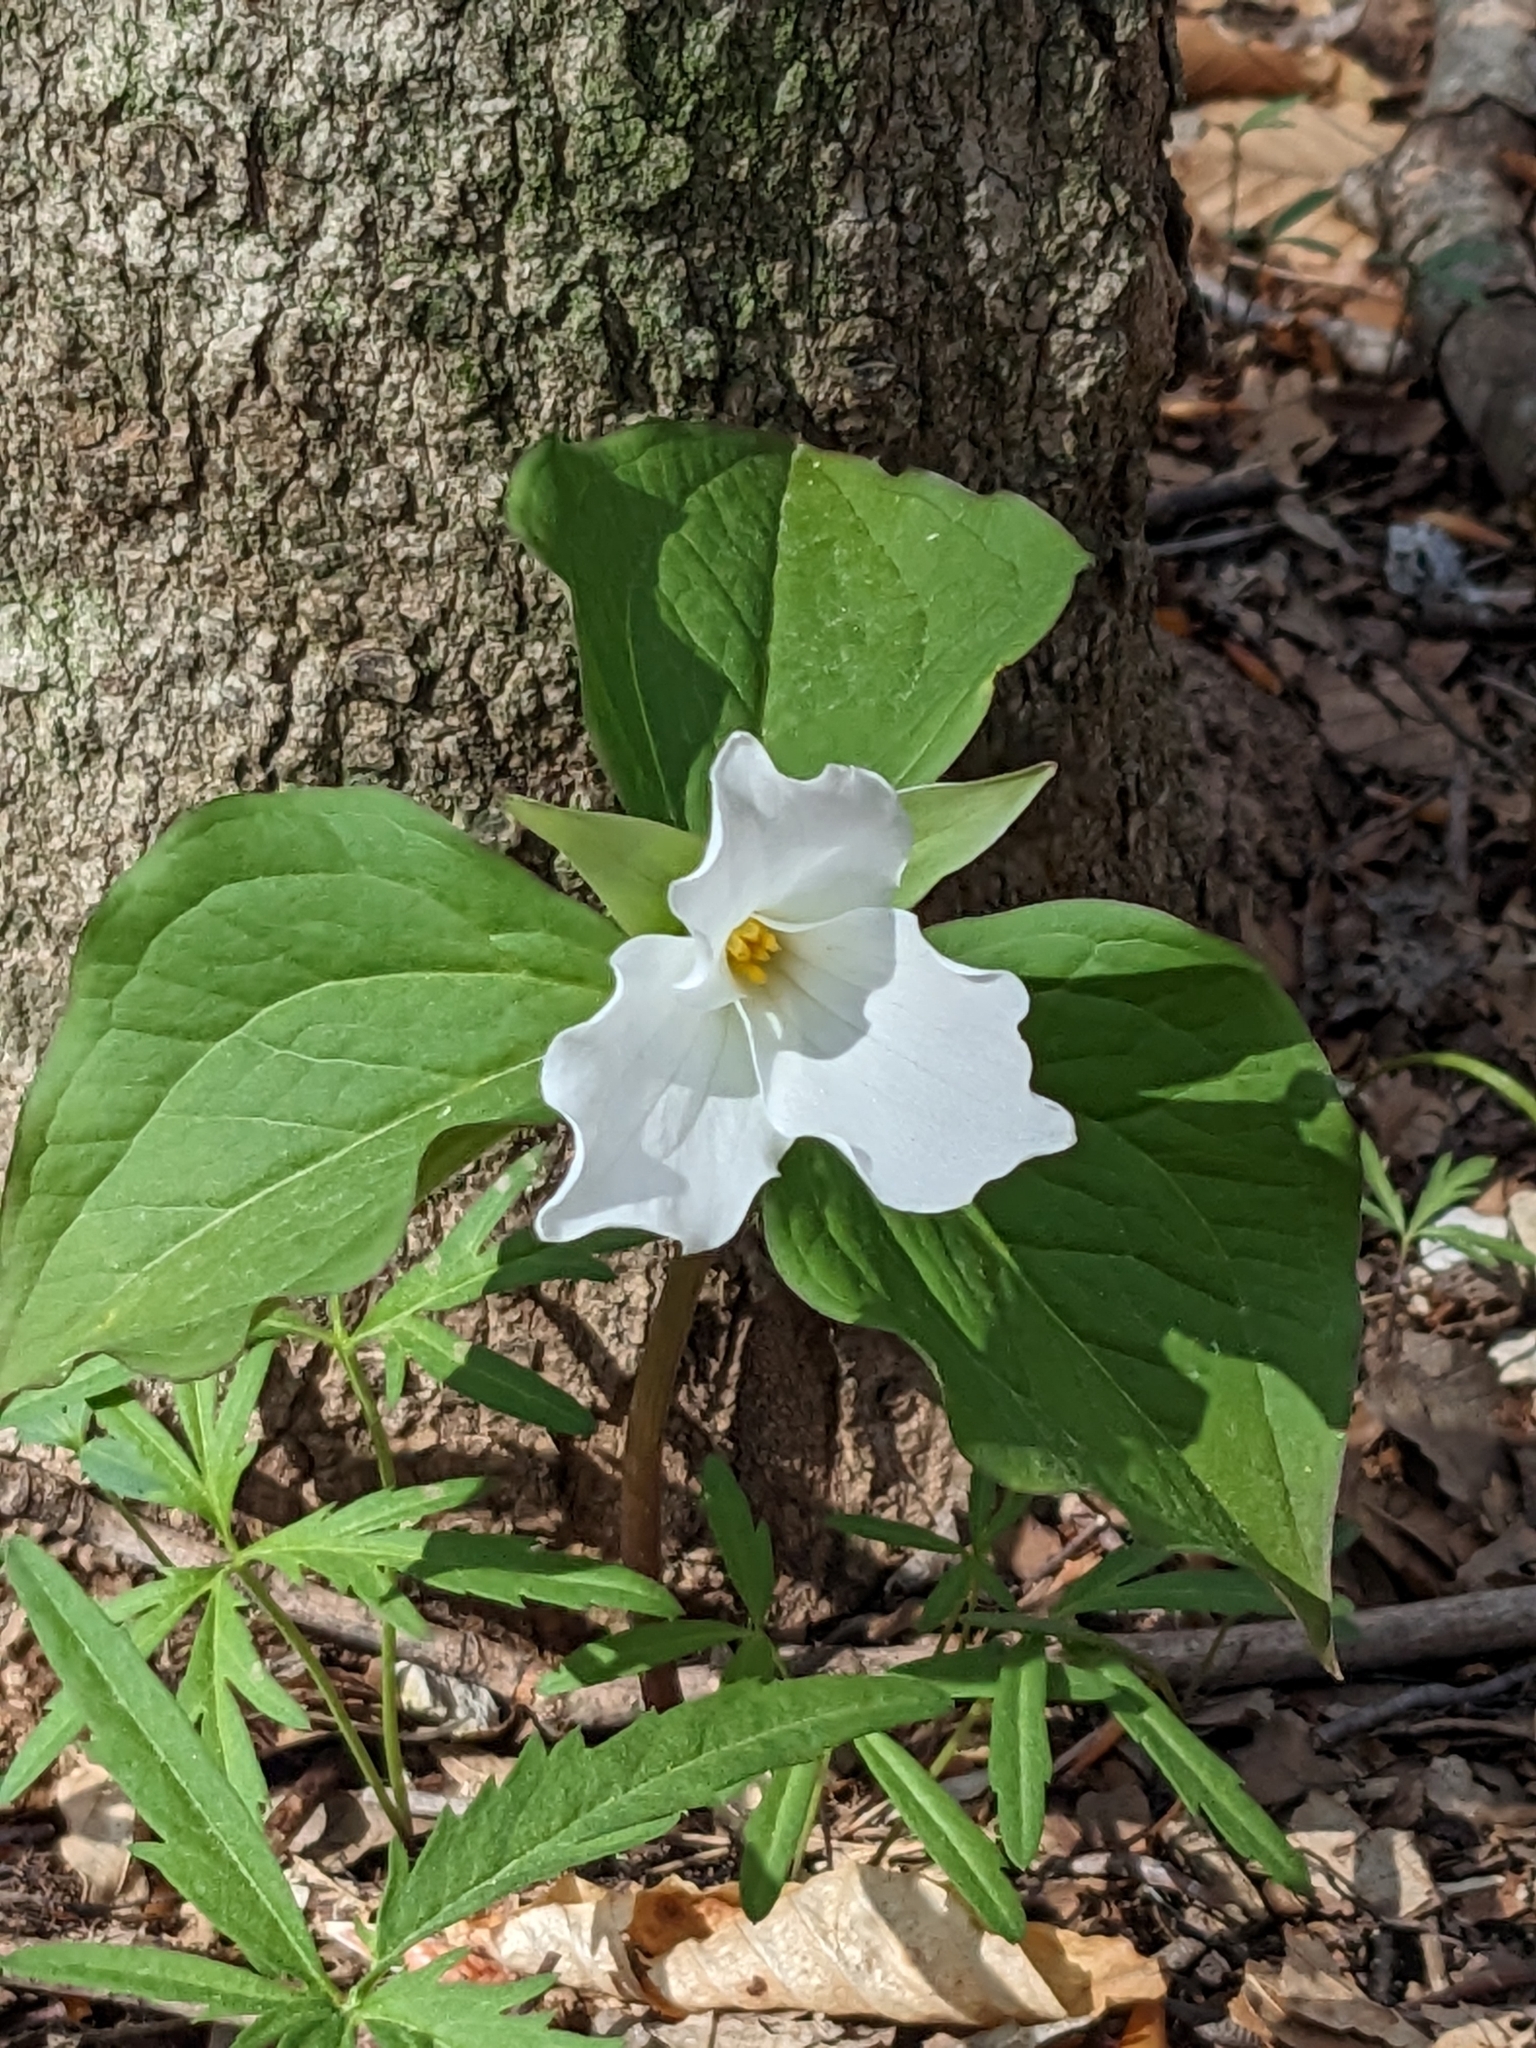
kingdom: Plantae
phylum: Tracheophyta
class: Liliopsida
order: Liliales
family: Melanthiaceae
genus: Trillium
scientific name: Trillium grandiflorum
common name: Great white trillium
